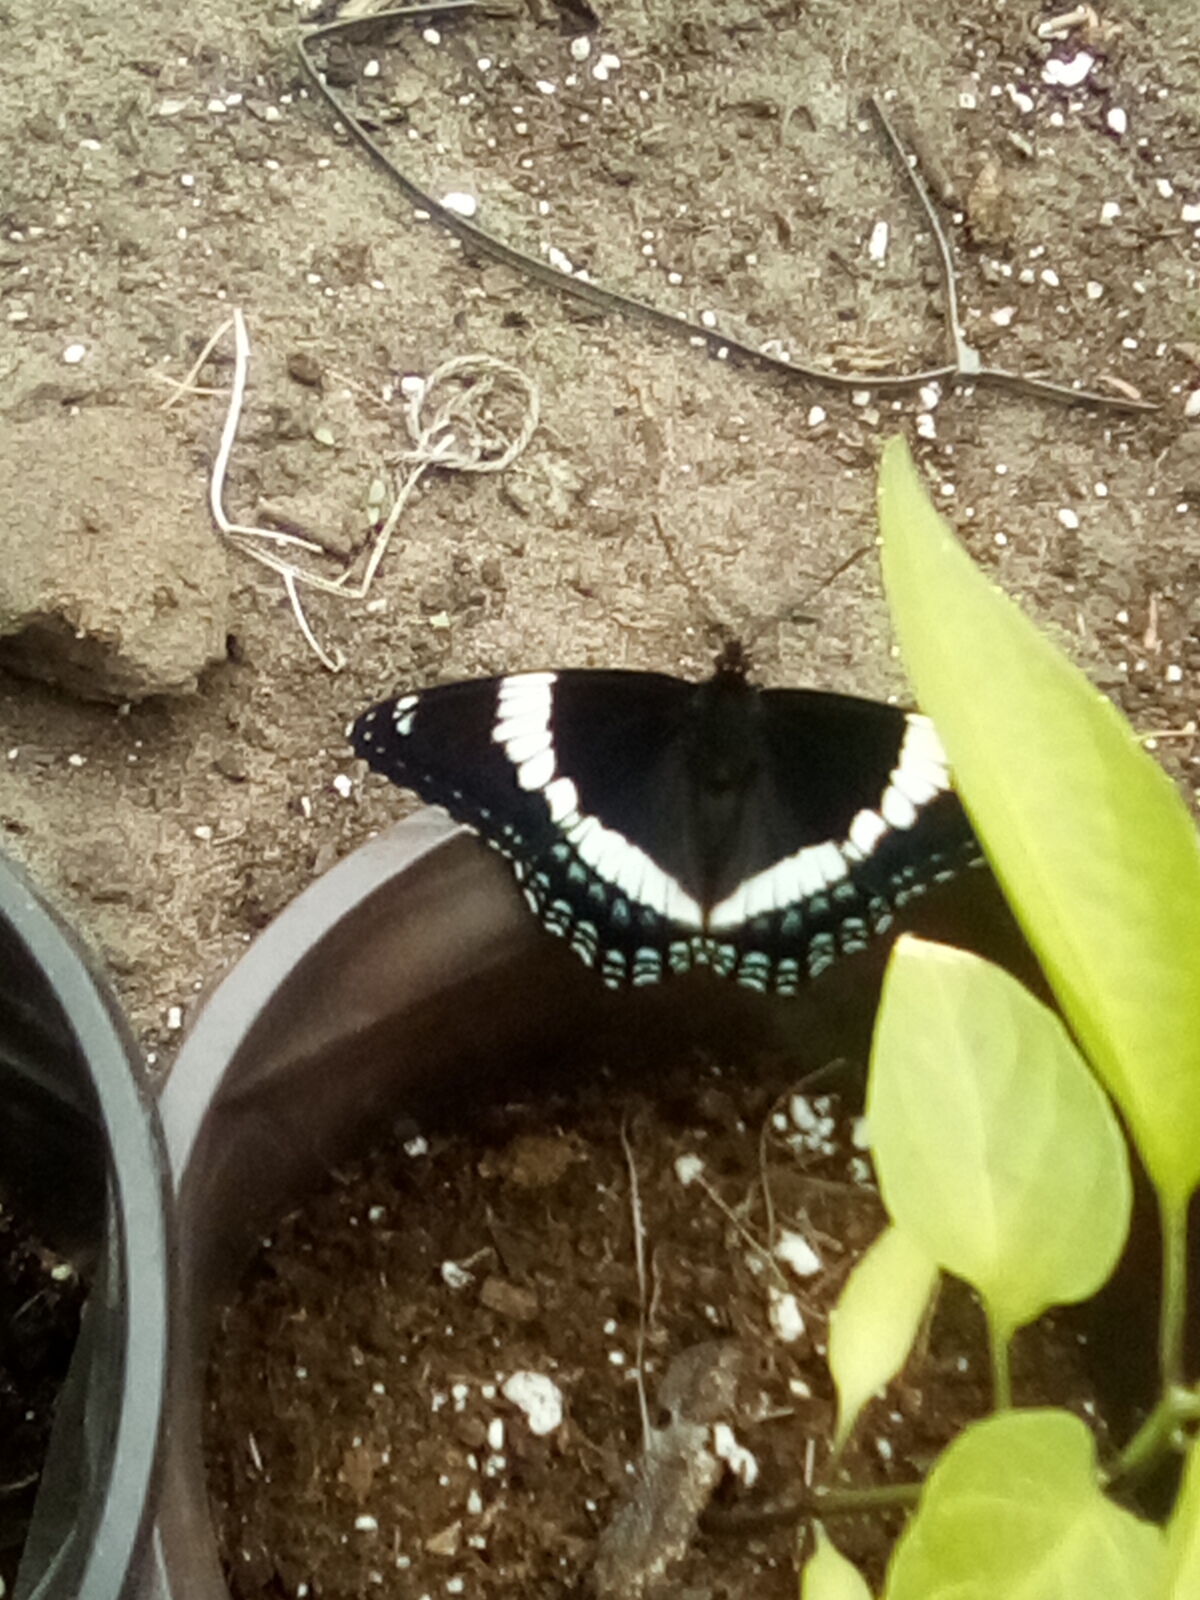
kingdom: Animalia
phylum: Arthropoda
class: Insecta
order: Lepidoptera
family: Nymphalidae
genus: Limenitis
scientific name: Limenitis arthemis
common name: Red-spotted admiral
